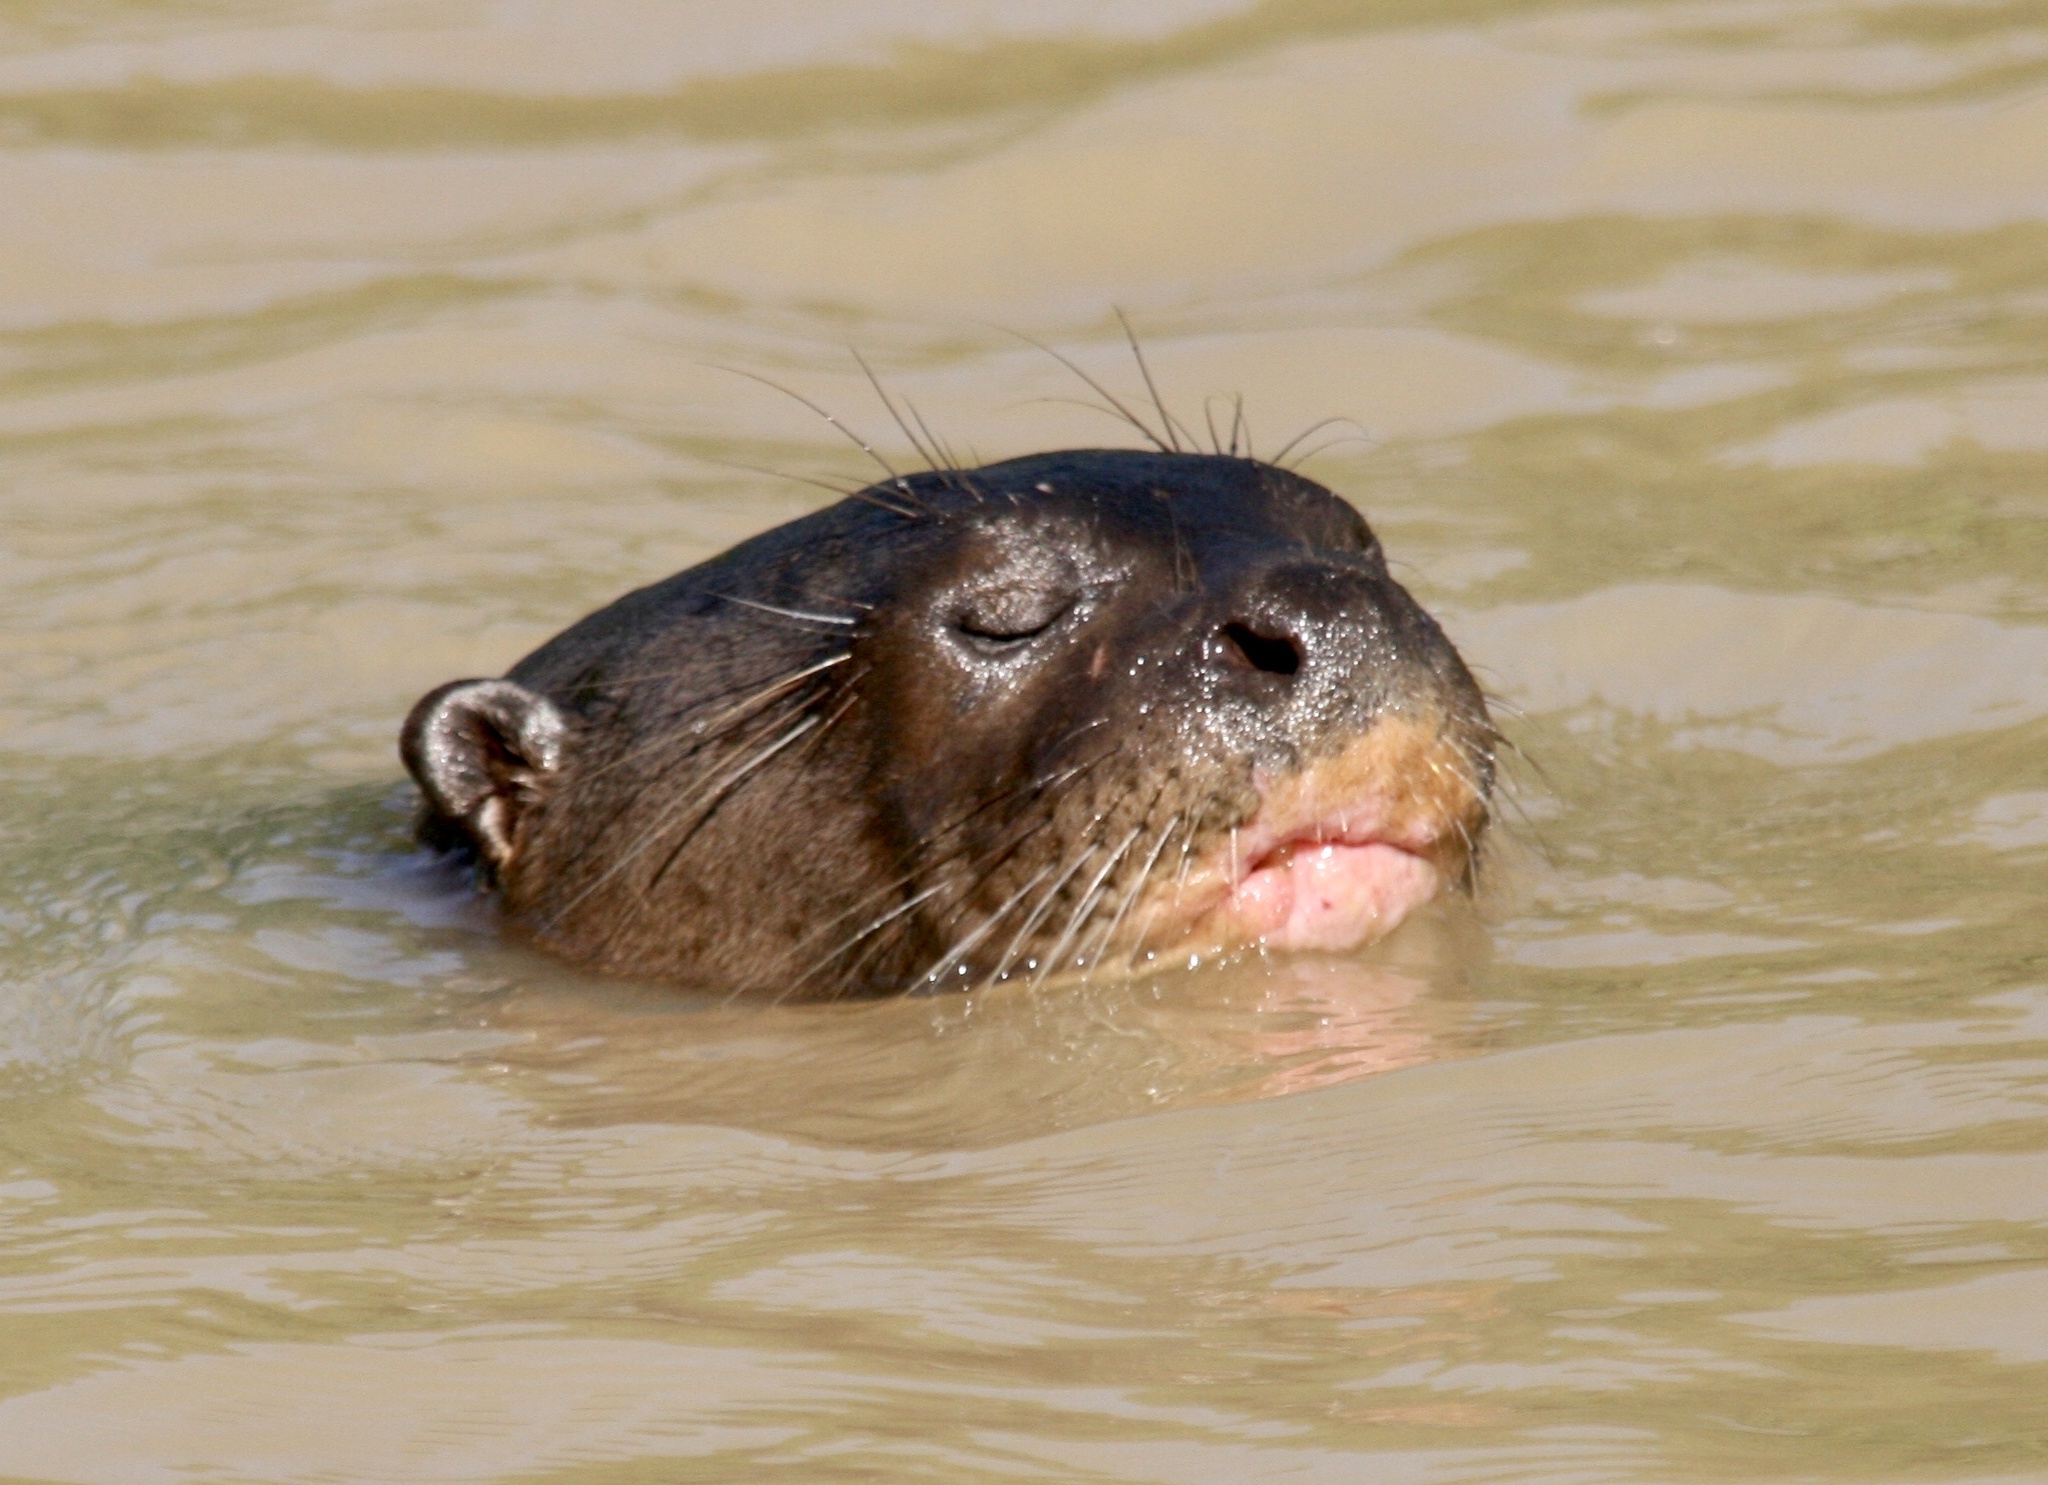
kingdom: Animalia
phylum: Chordata
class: Mammalia
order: Carnivora
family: Mustelidae
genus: Pteronura
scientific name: Pteronura brasiliensis
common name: Giant otter
